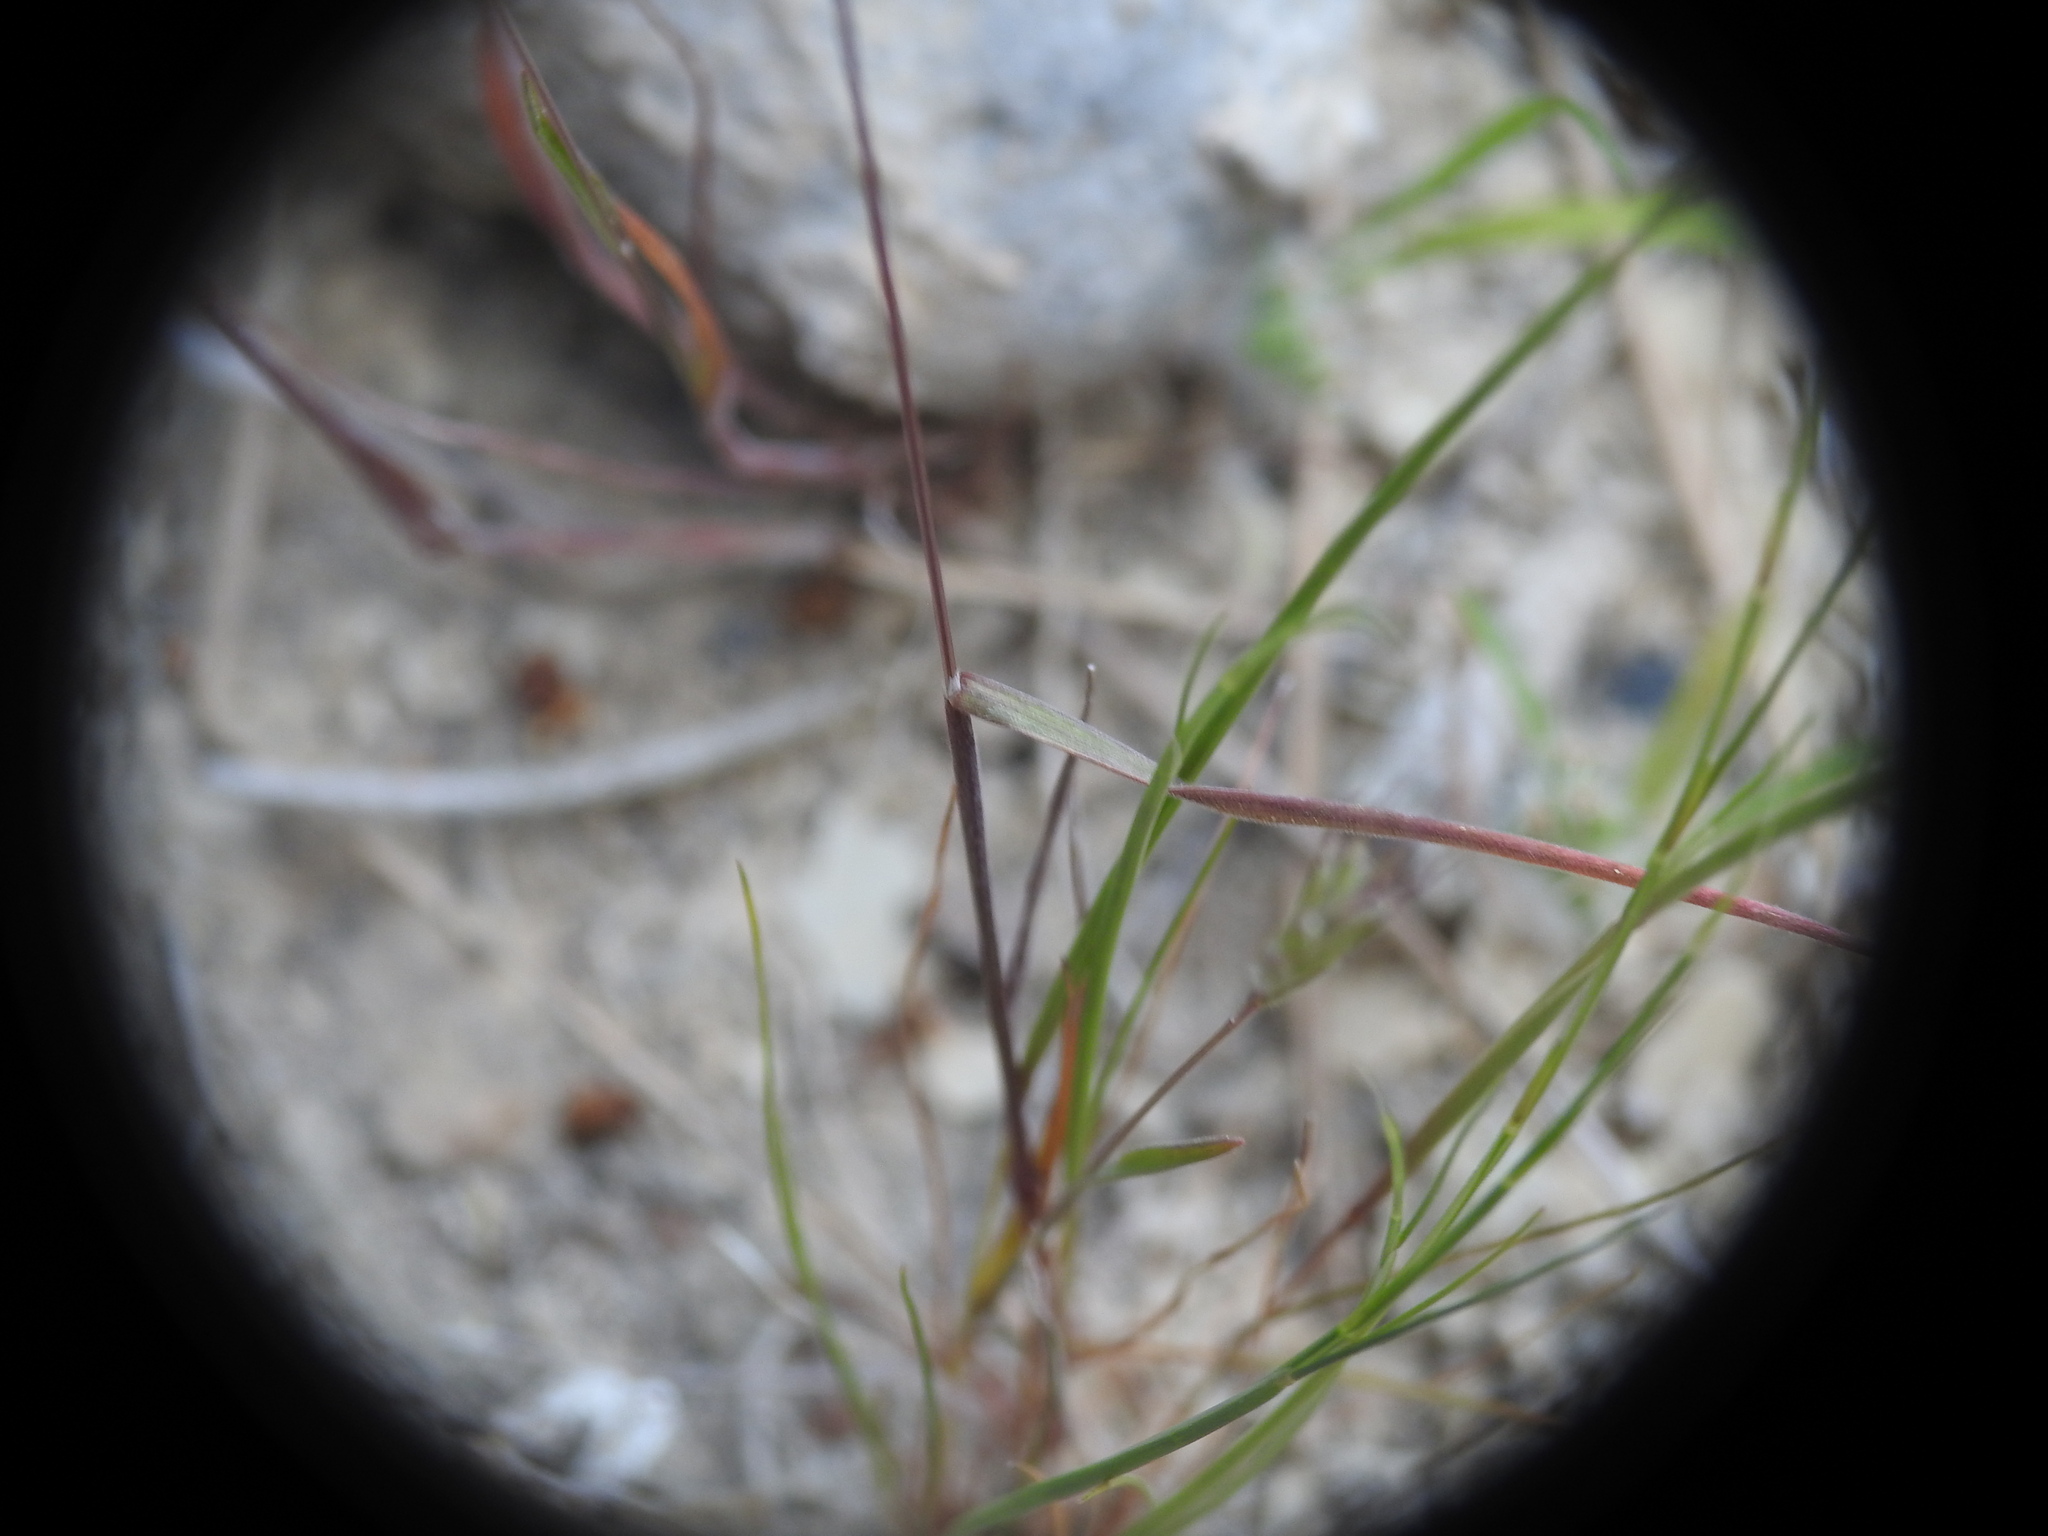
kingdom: Plantae
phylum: Tracheophyta
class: Liliopsida
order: Poales
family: Poaceae
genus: Bromus
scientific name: Bromus rubens
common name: Red brome
